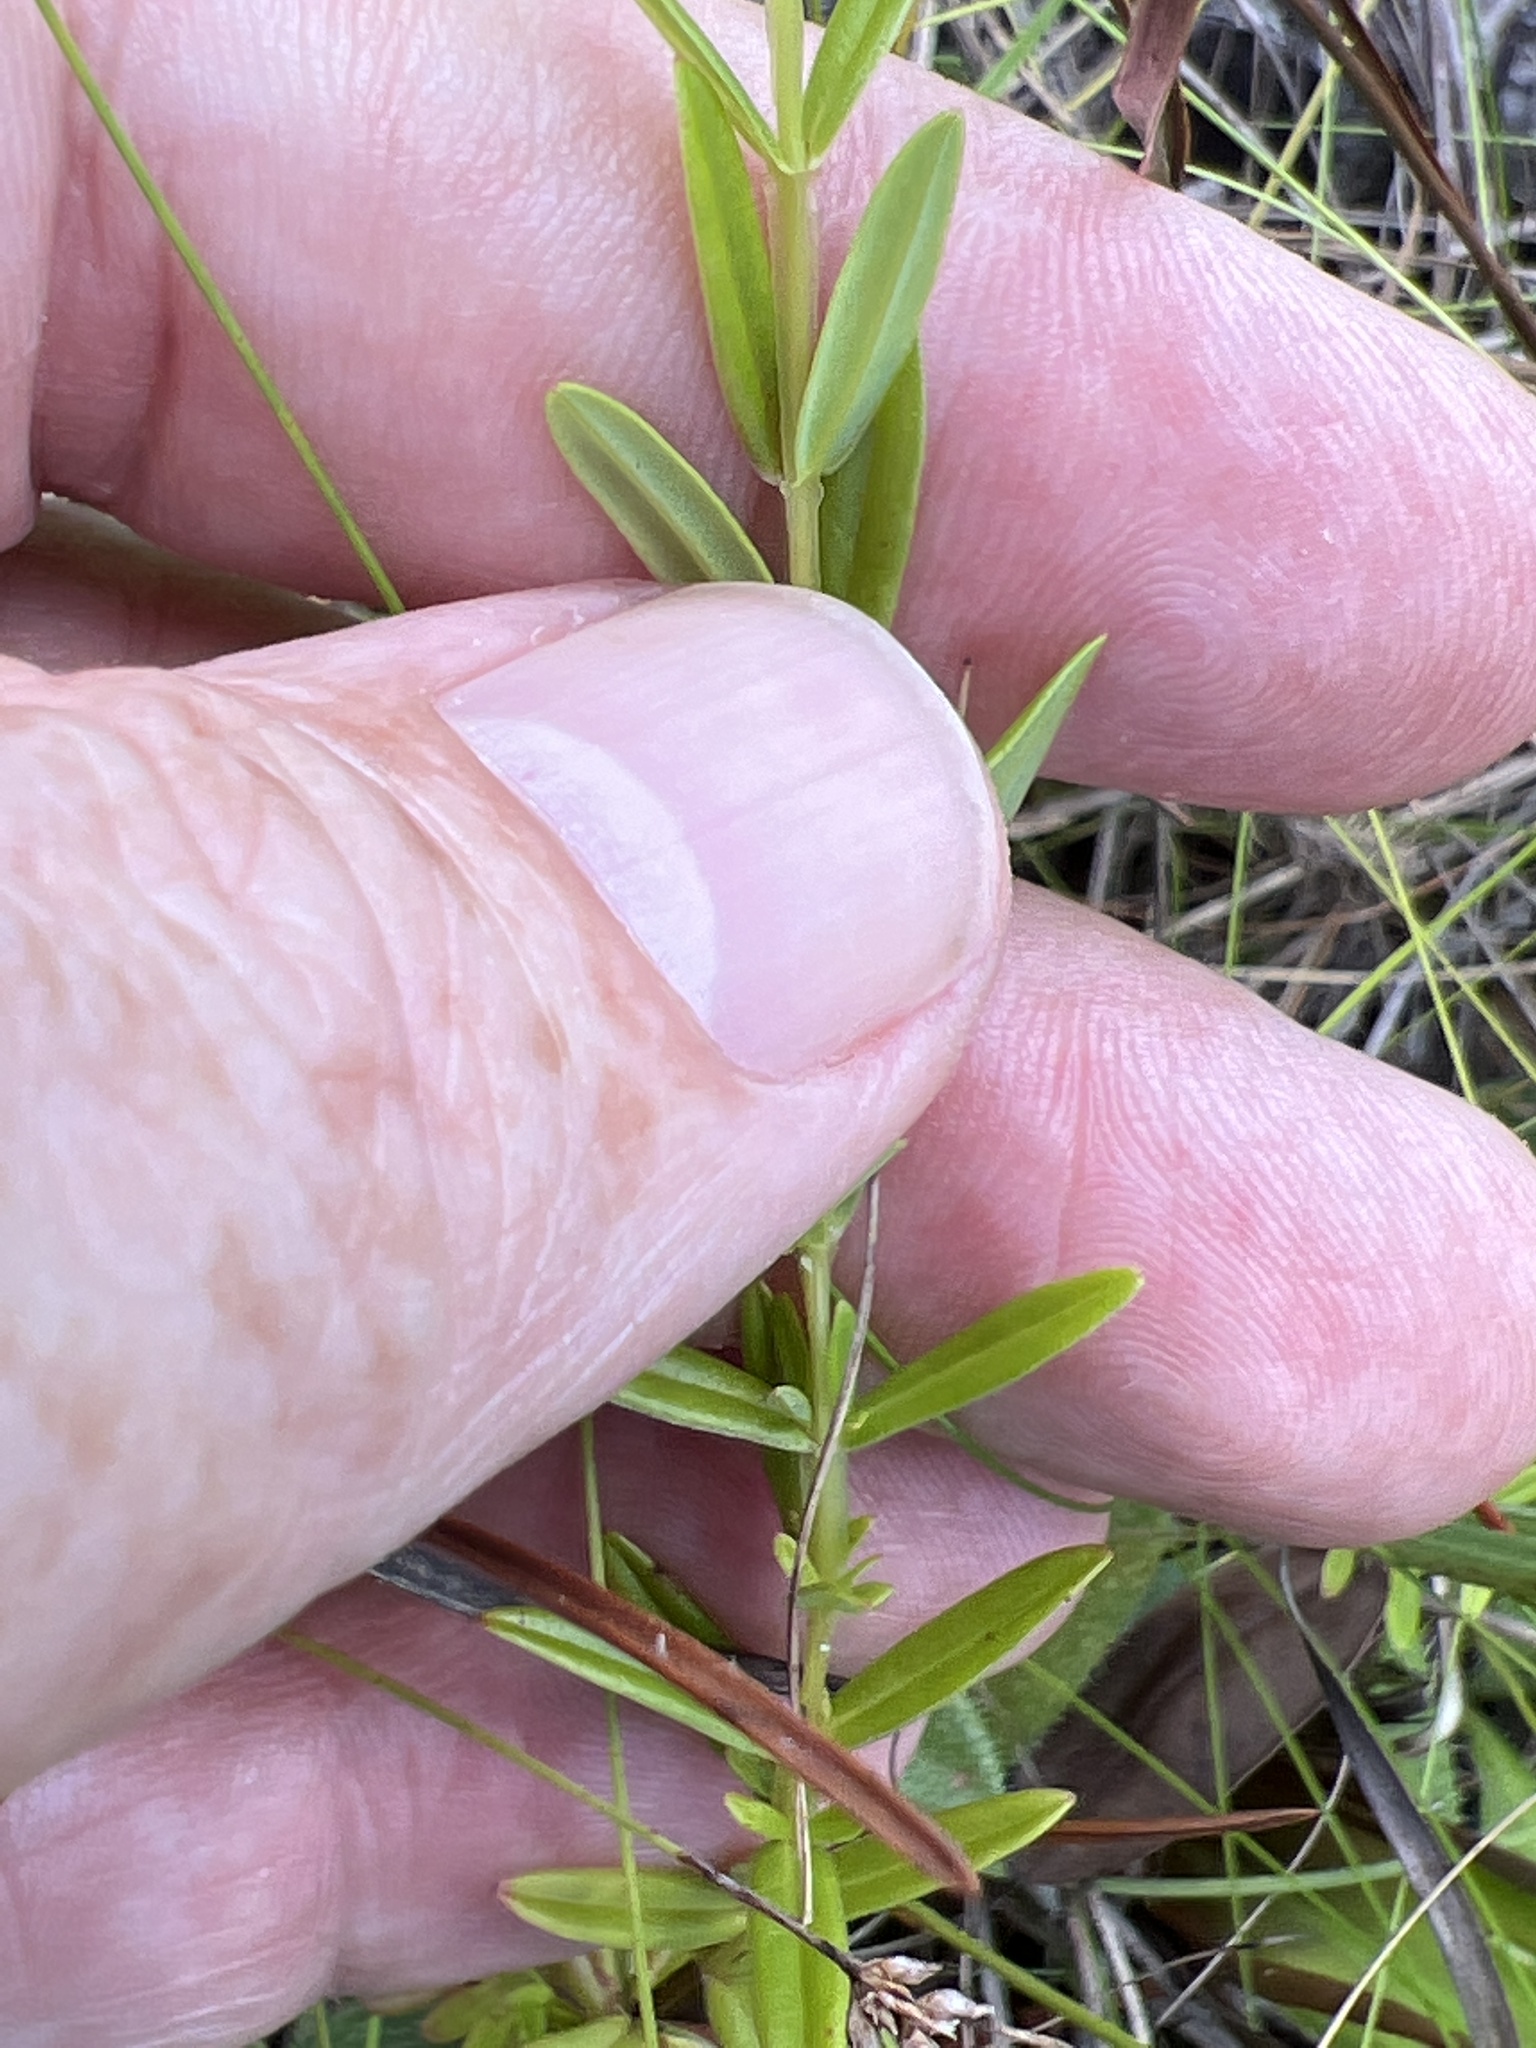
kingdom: Plantae
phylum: Tracheophyta
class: Magnoliopsida
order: Malpighiales
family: Hypericaceae
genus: Hypericum
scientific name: Hypericum cistifolium
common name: Round-pod st. john's-wort
